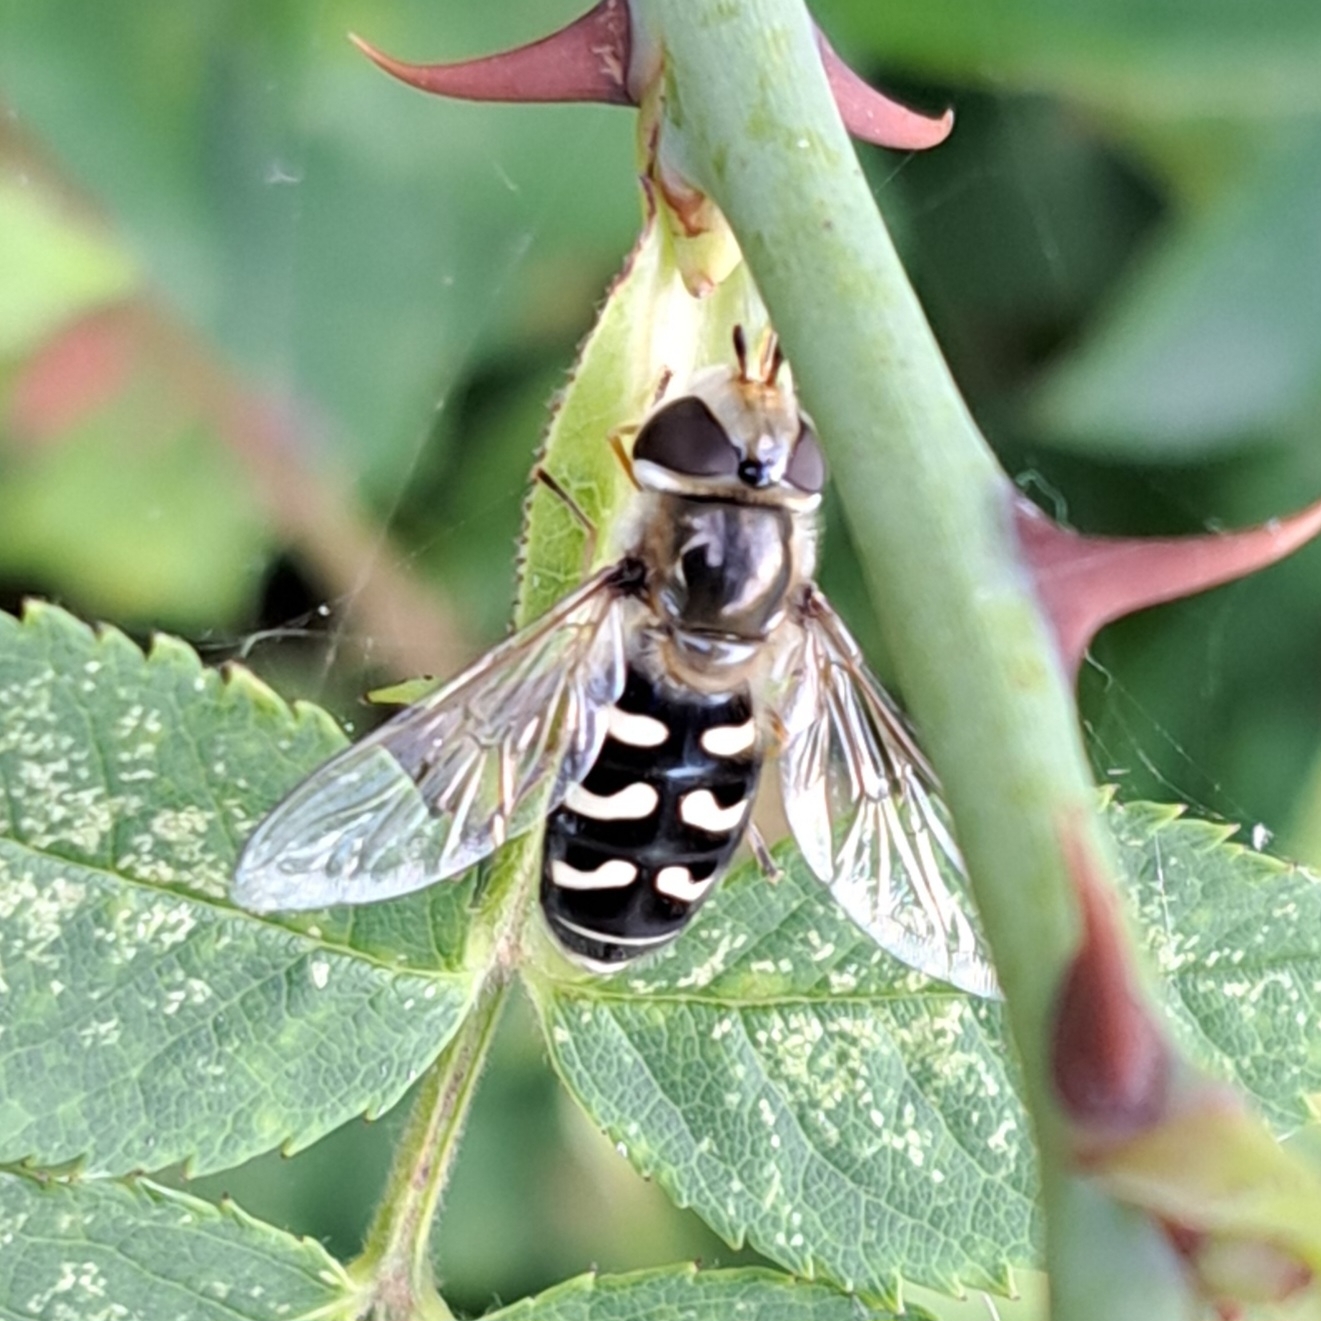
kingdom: Animalia
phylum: Arthropoda
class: Insecta
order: Diptera
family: Syrphidae
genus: Scaeva
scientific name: Scaeva pyrastri
